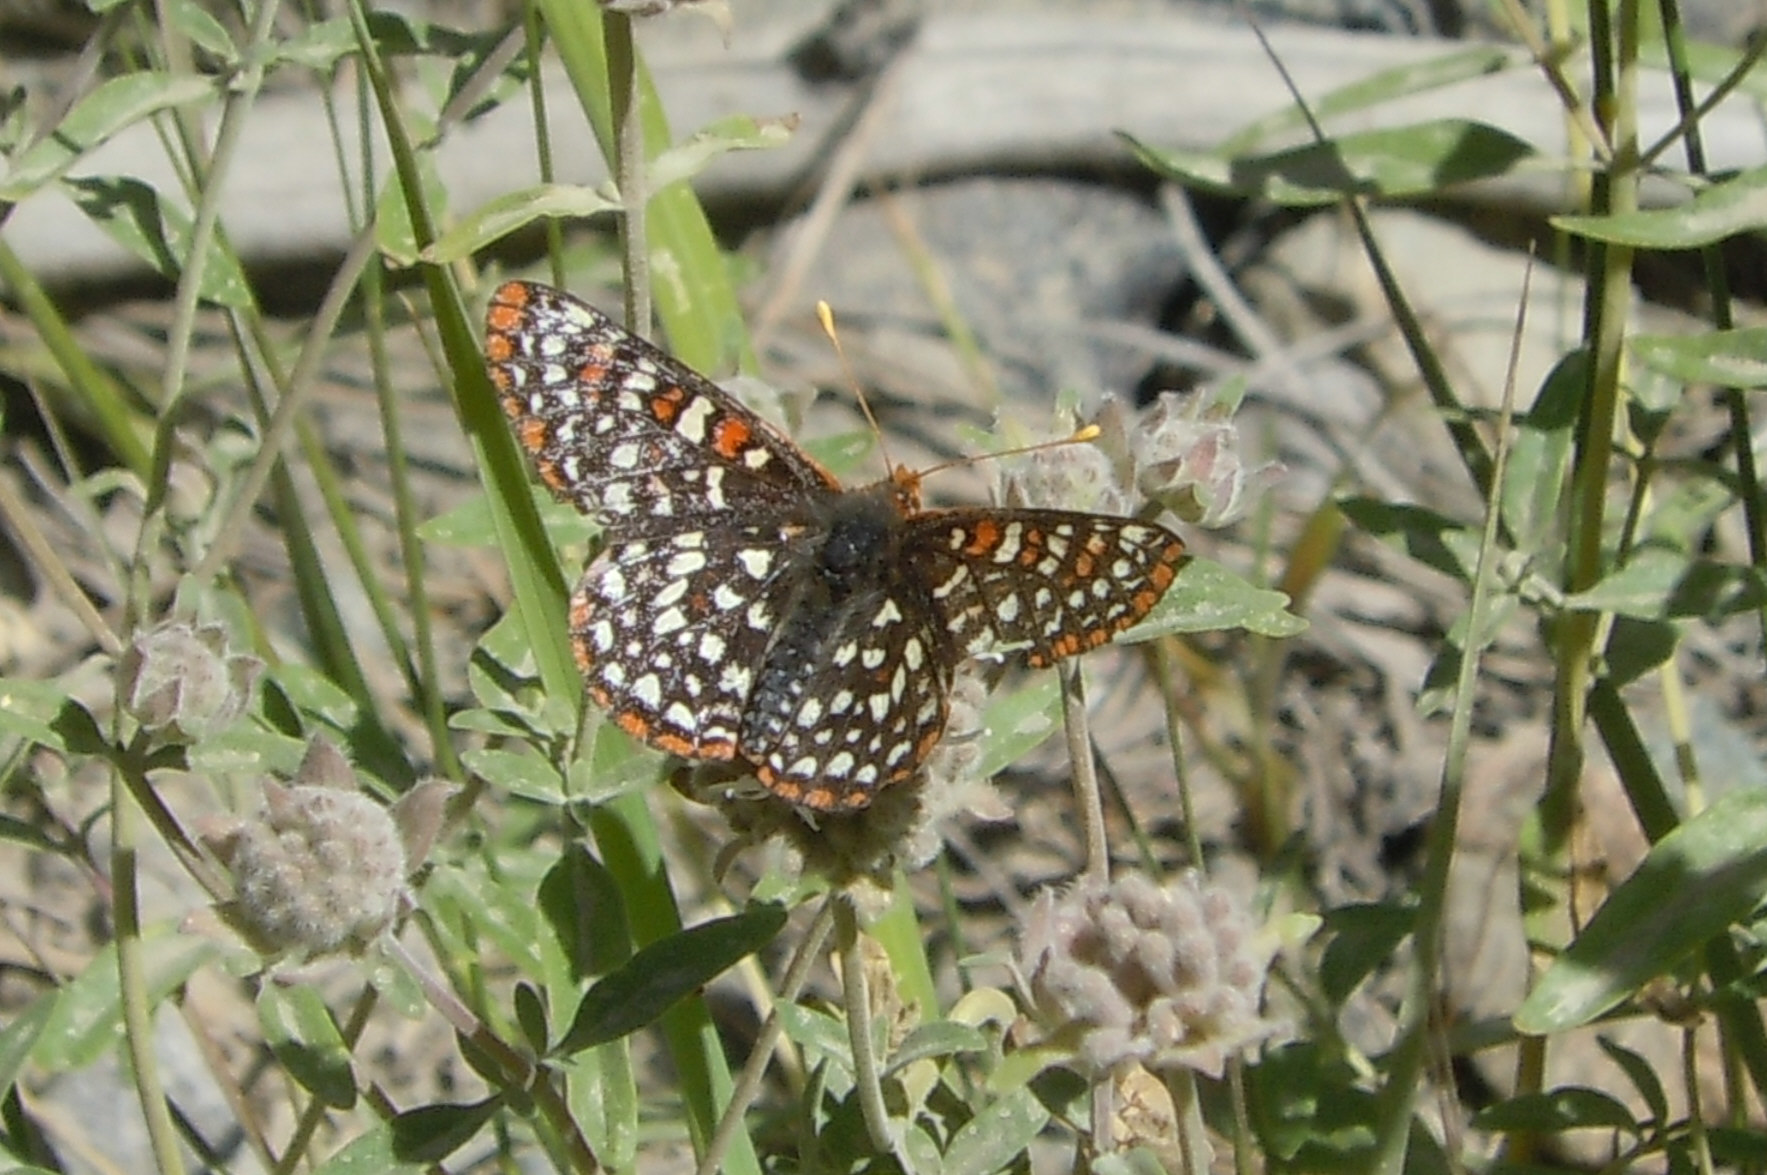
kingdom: Animalia
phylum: Arthropoda
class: Insecta
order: Lepidoptera
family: Nymphalidae
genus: Occidryas
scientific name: Occidryas chalcedona
